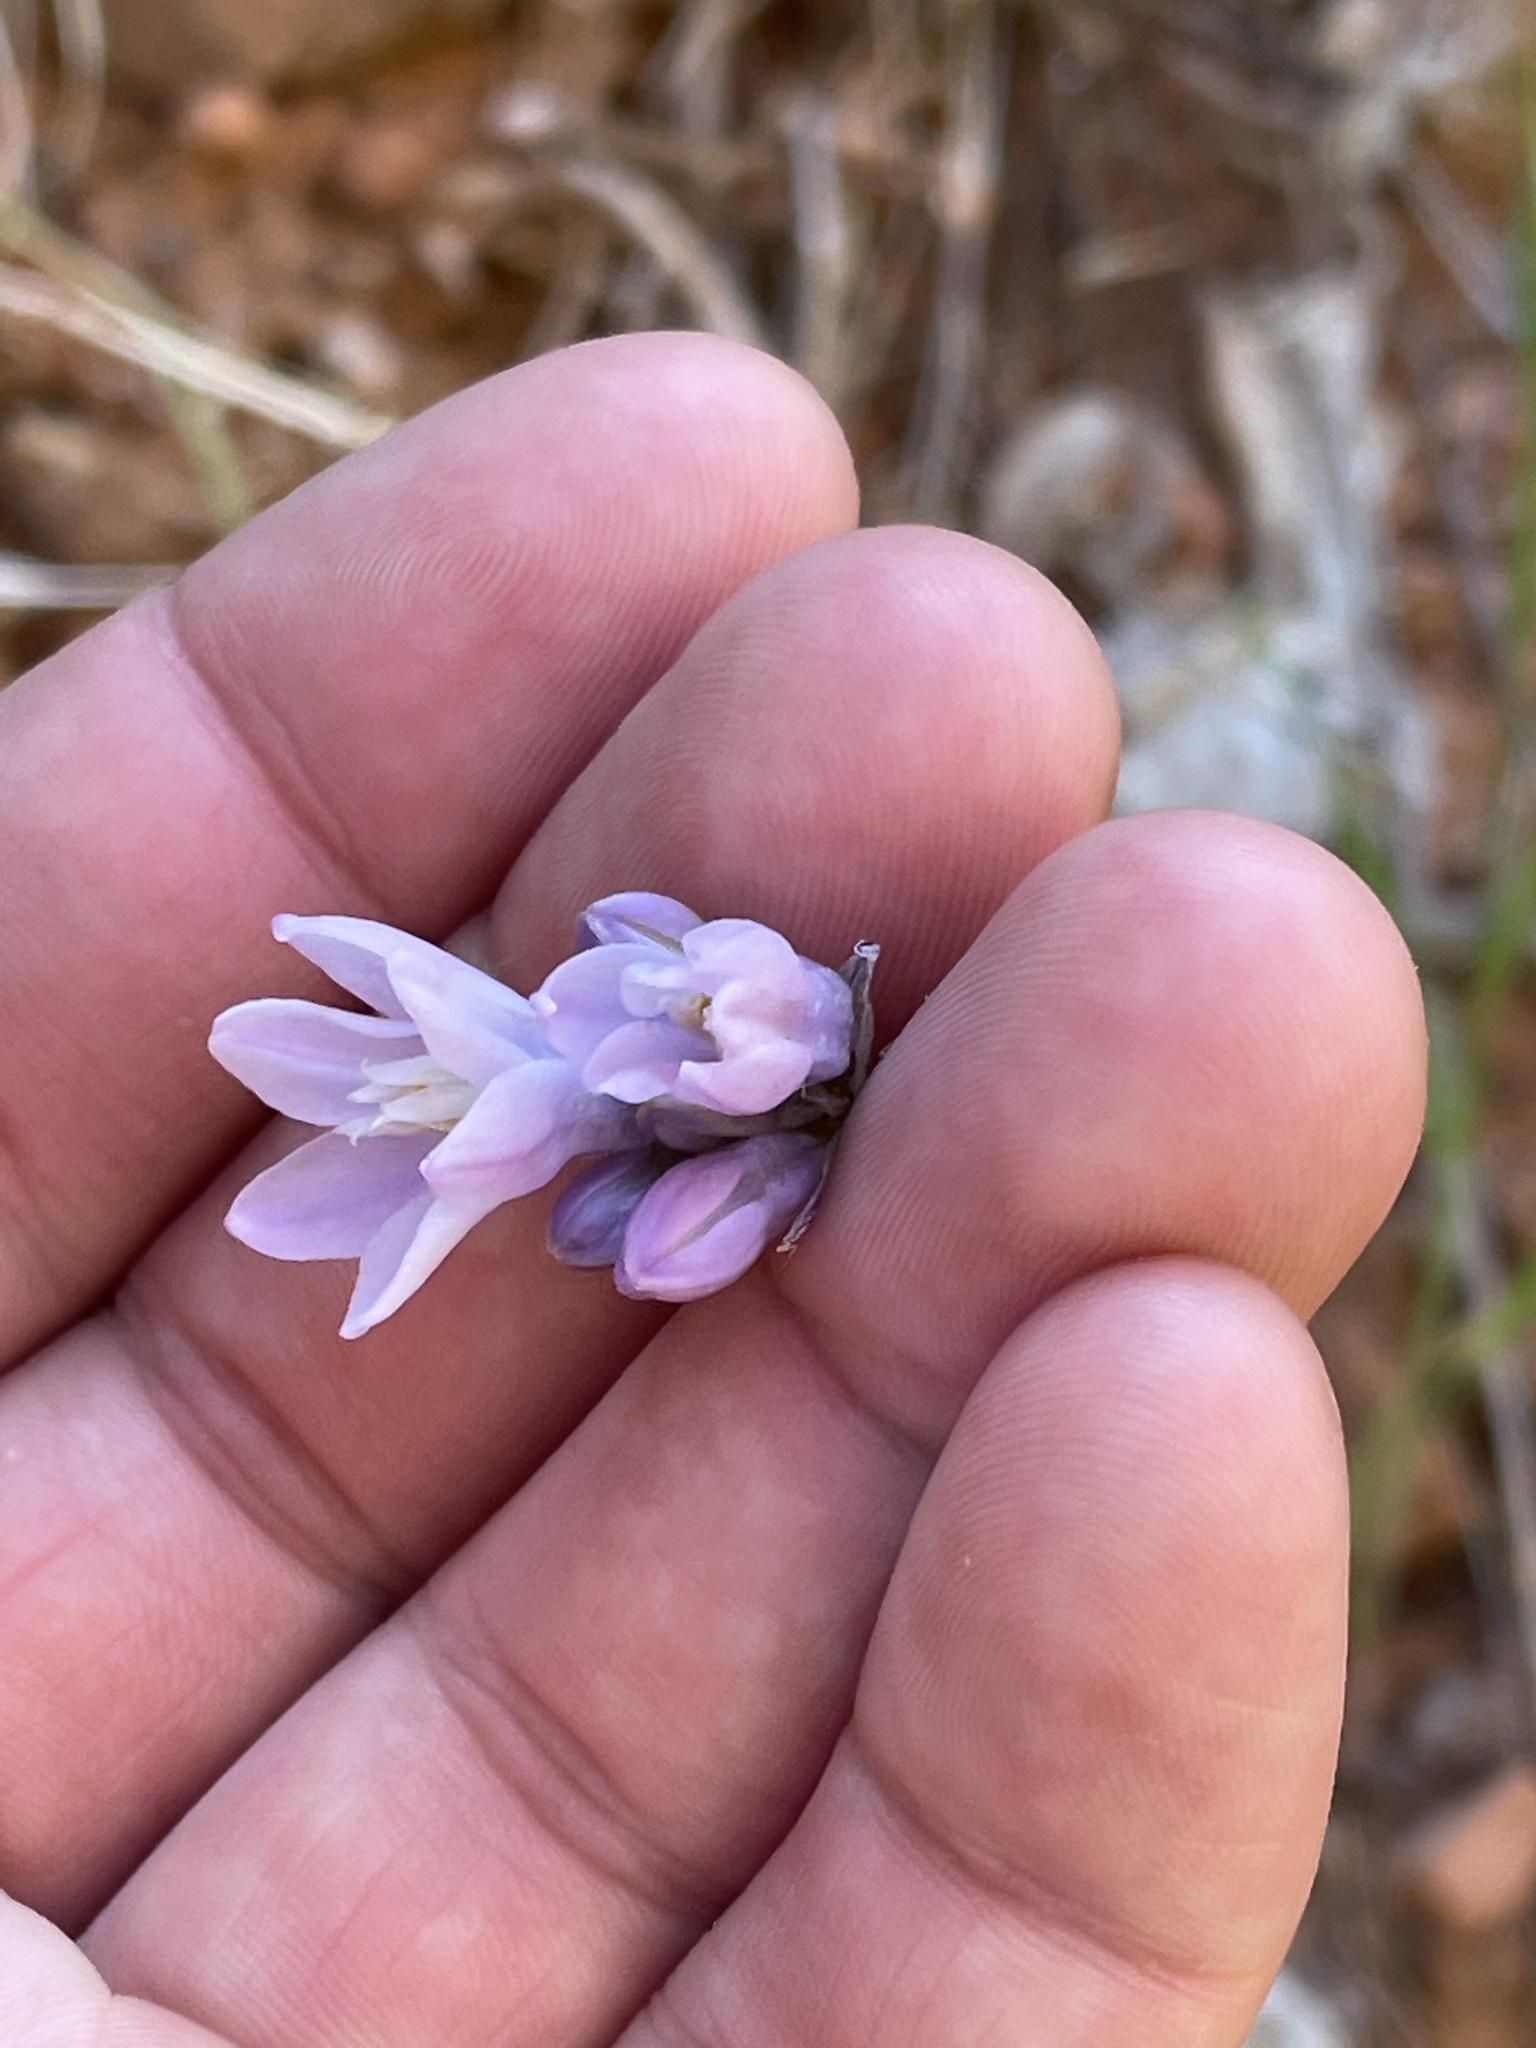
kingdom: Plantae
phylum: Tracheophyta
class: Liliopsida
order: Asparagales
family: Asparagaceae
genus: Dipterostemon
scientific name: Dipterostemon capitatus
